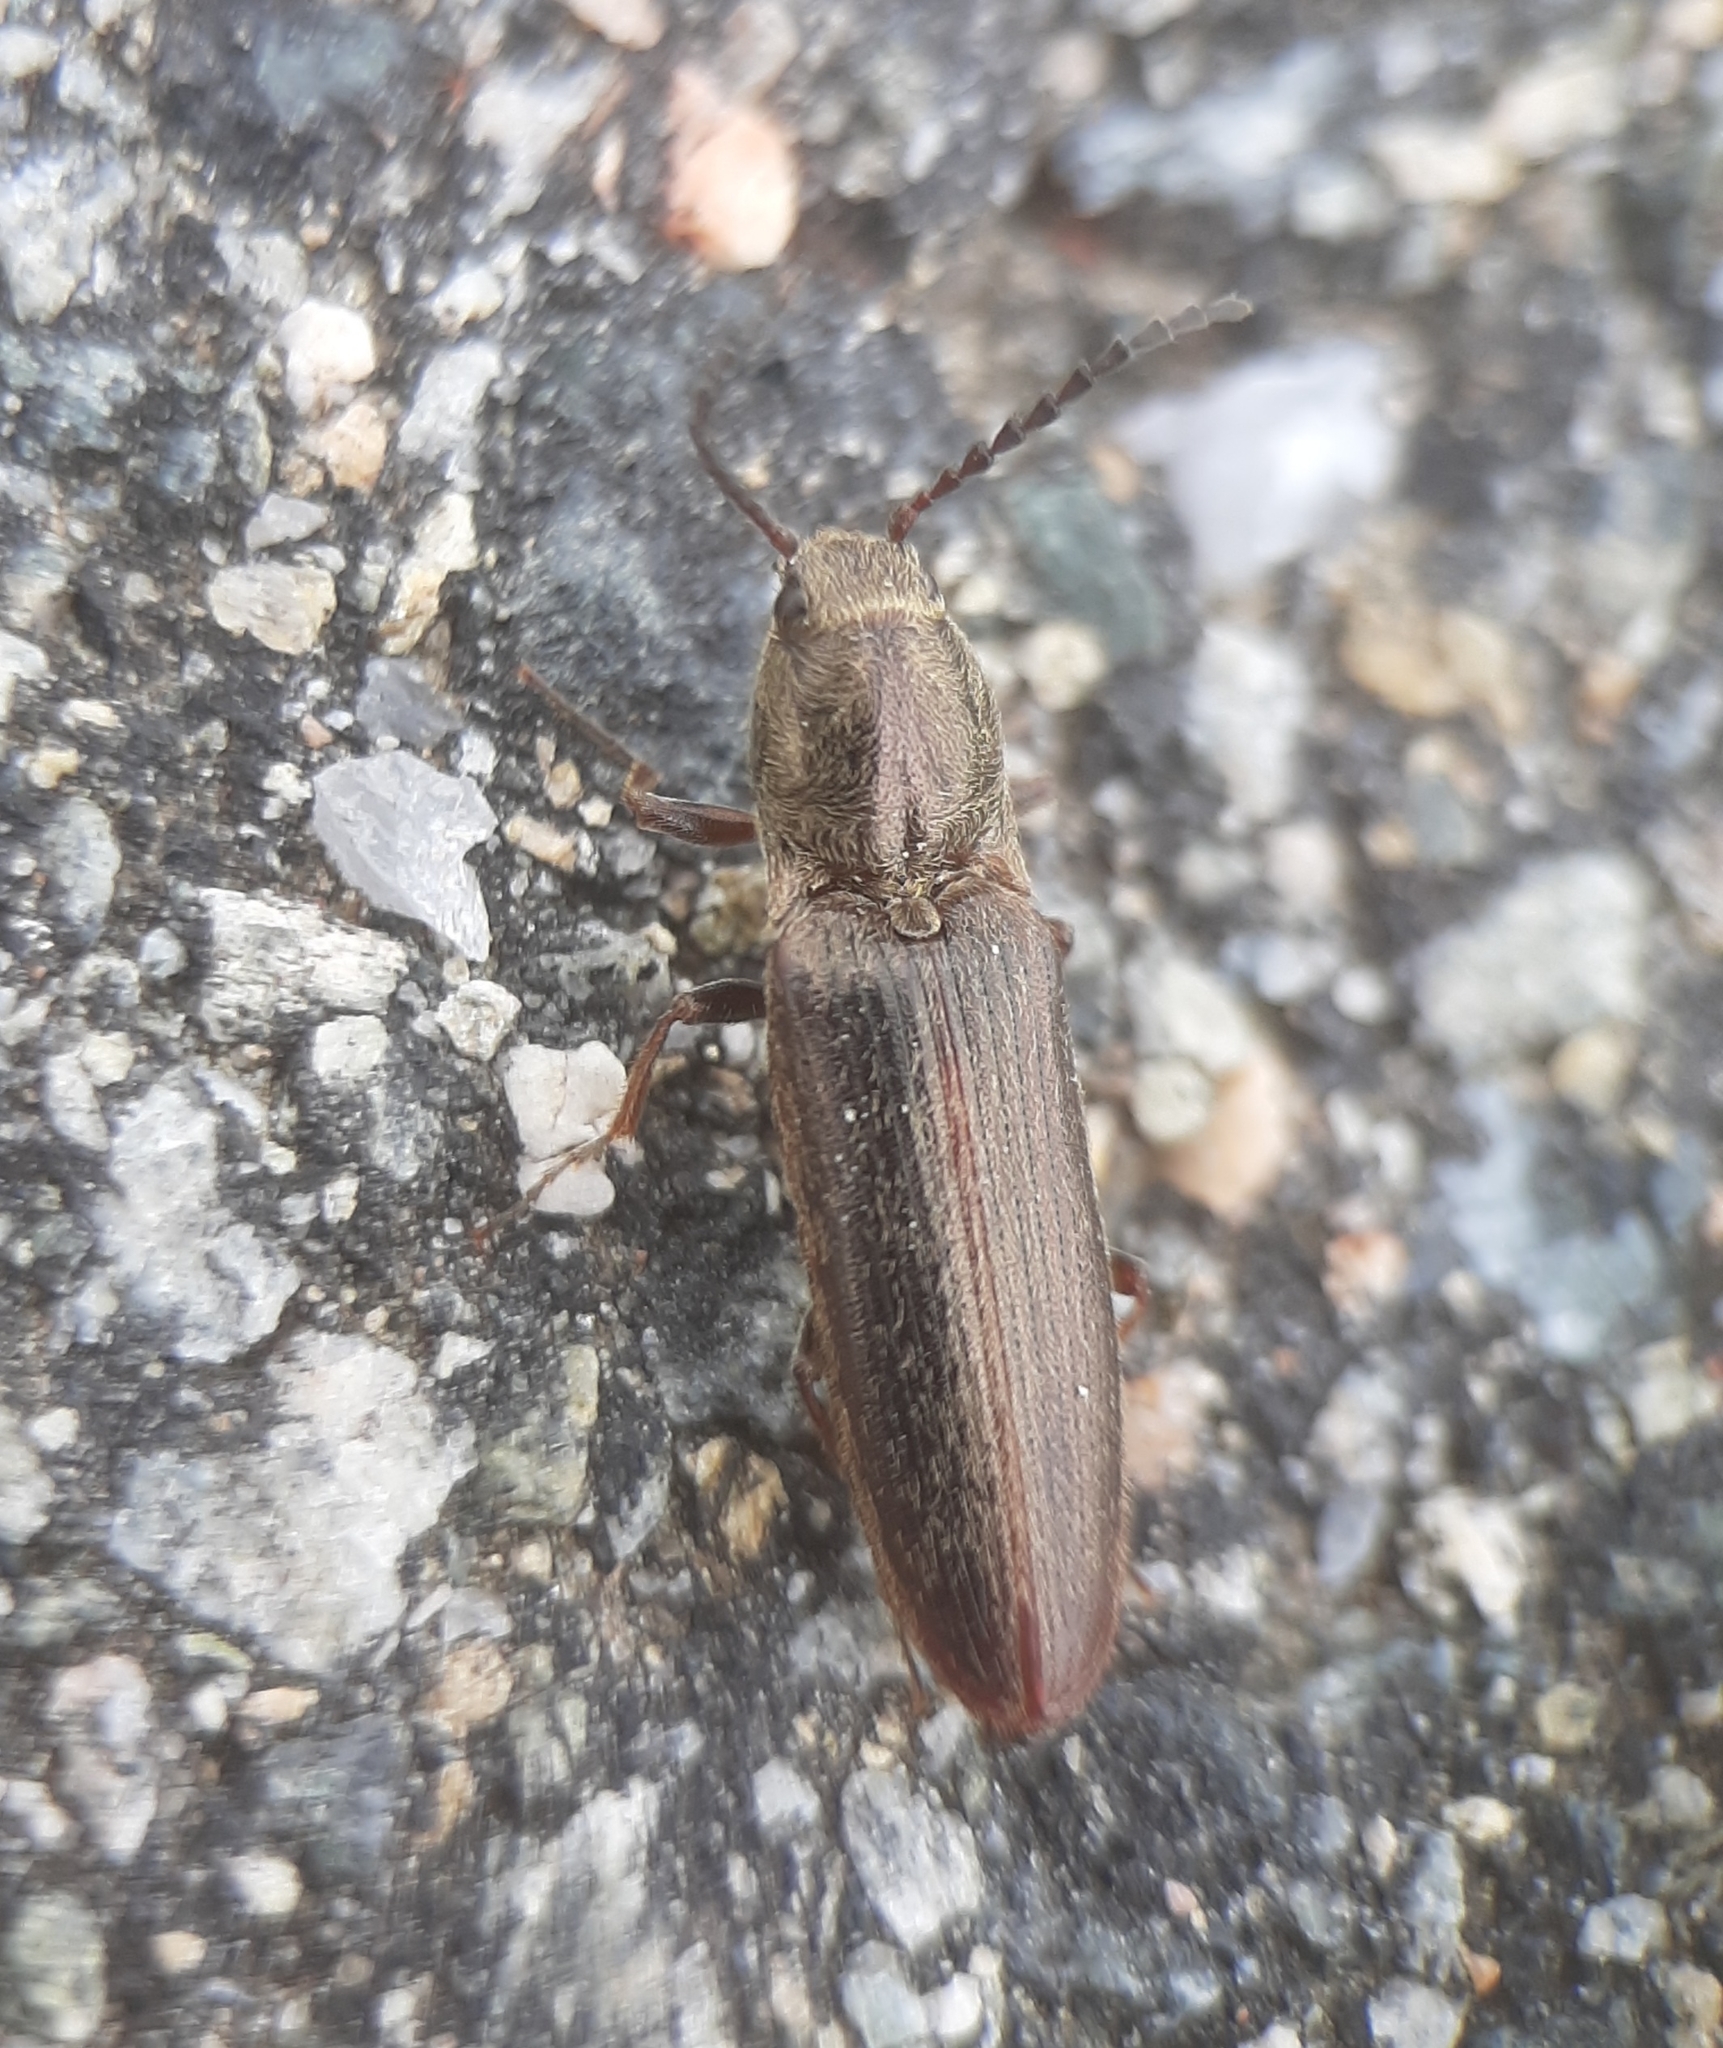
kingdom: Animalia
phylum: Arthropoda
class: Insecta
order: Coleoptera
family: Elateridae
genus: Sylvanelater
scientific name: Sylvanelater cylindriformis
